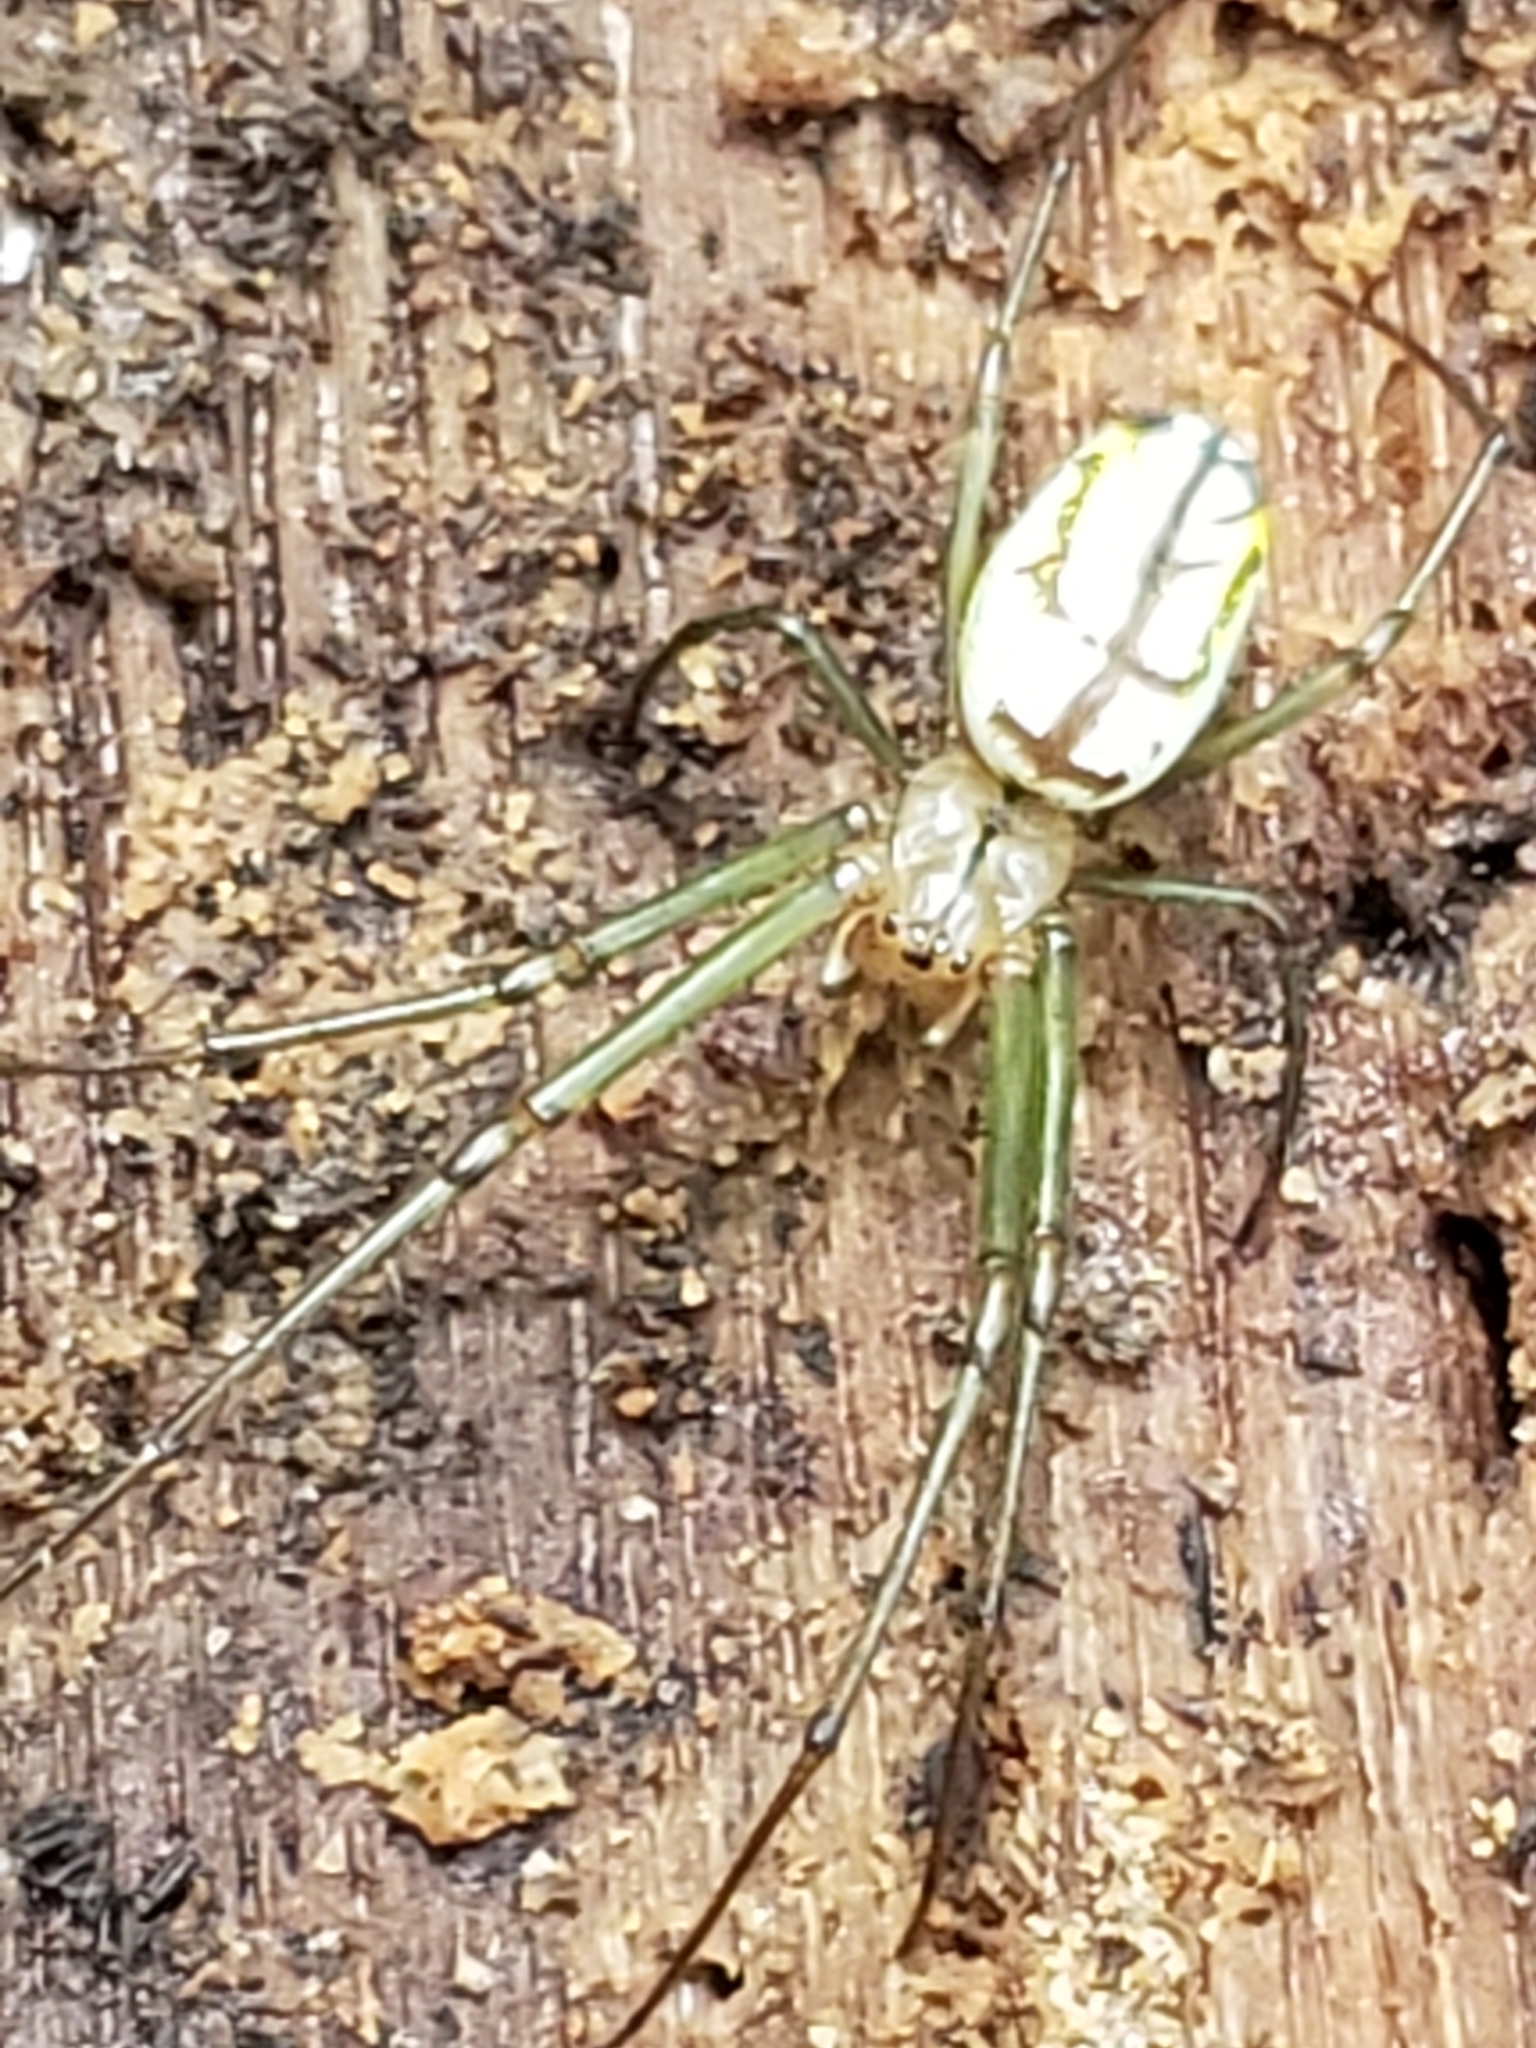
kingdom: Animalia
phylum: Arthropoda
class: Arachnida
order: Araneae
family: Tetragnathidae
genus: Leucauge
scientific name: Leucauge venusta
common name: Longjawed orb weavers
